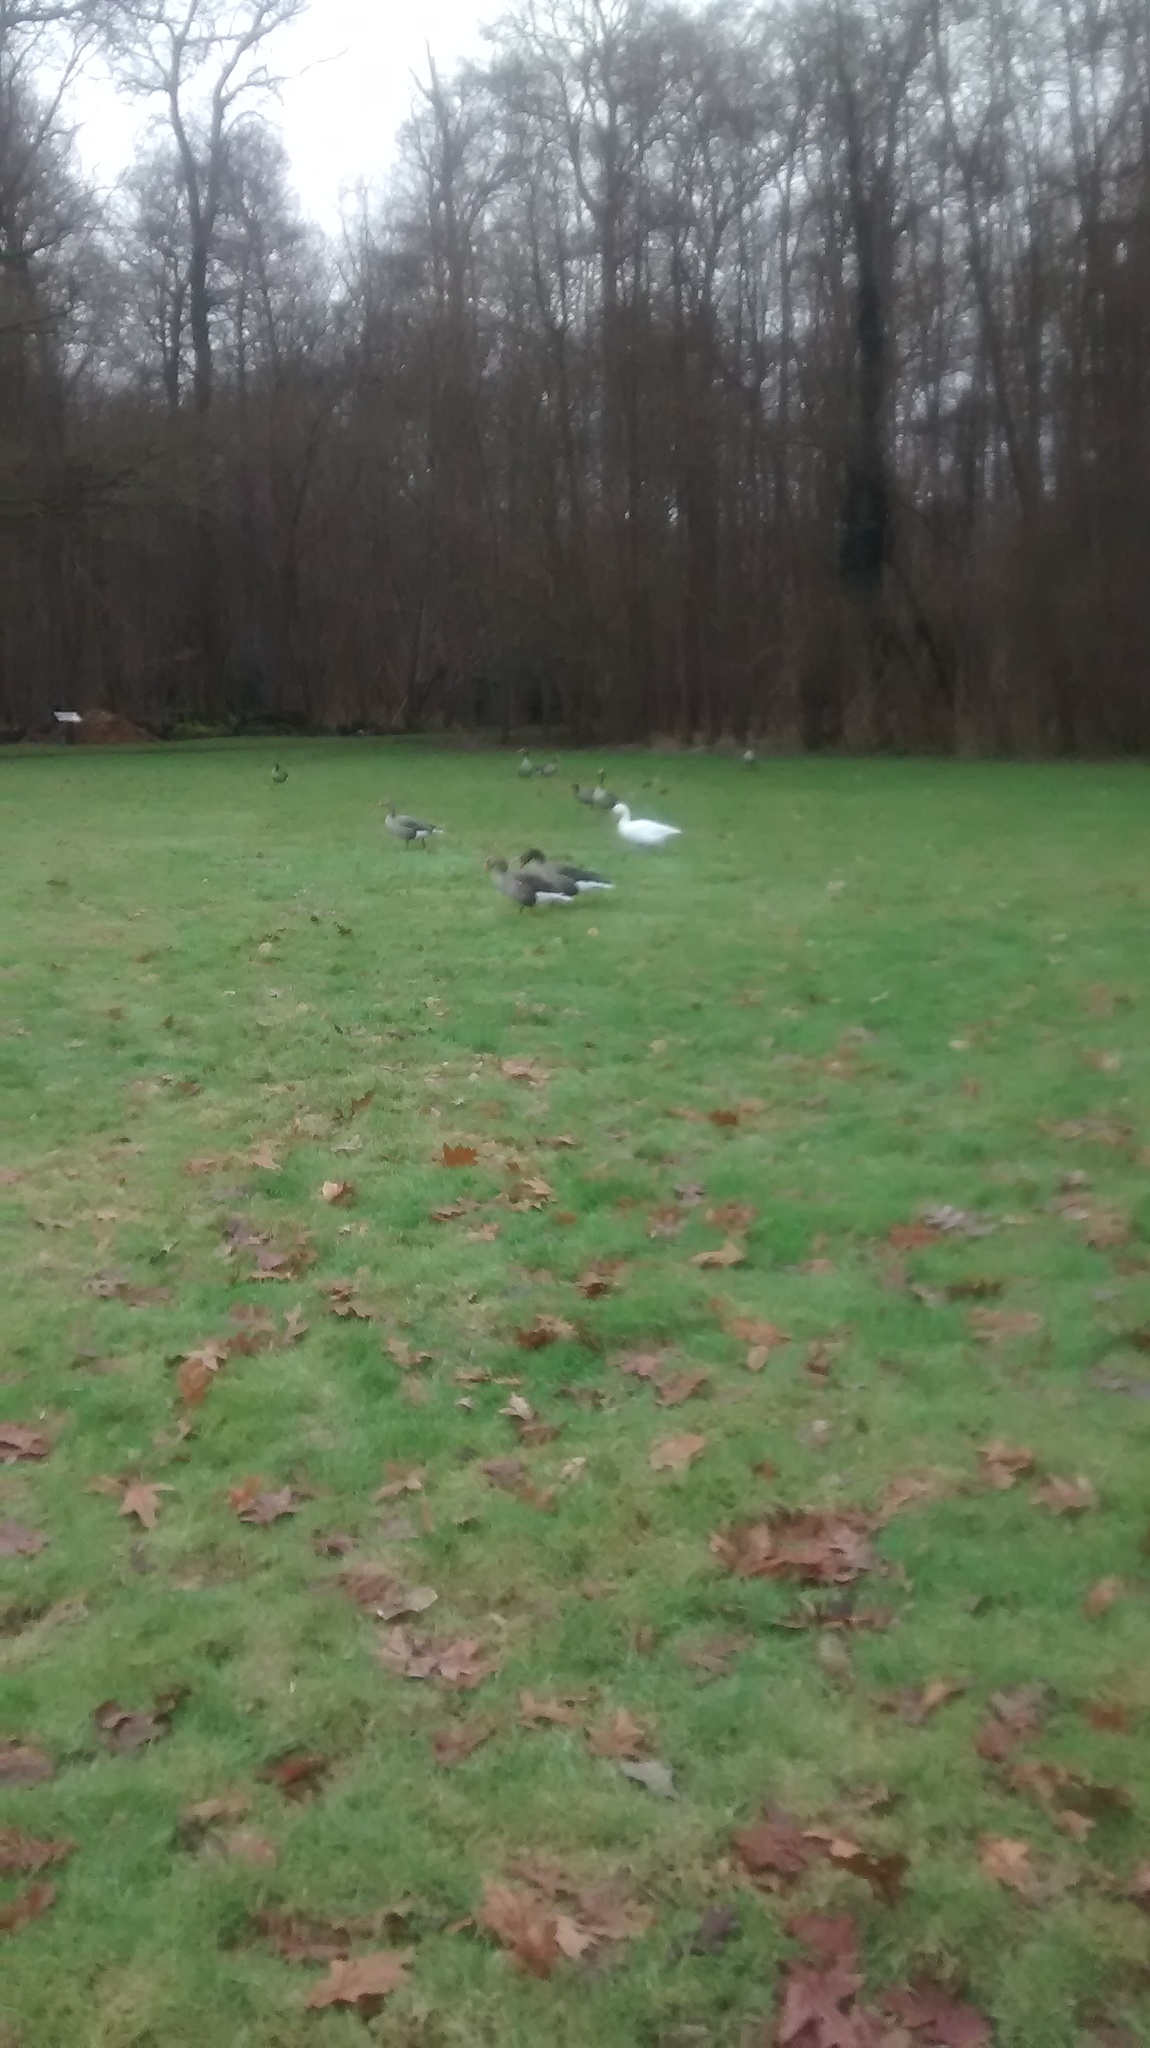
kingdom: Animalia
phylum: Chordata
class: Aves
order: Anseriformes
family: Anatidae
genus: Anser
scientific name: Anser anser
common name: Greylag goose
